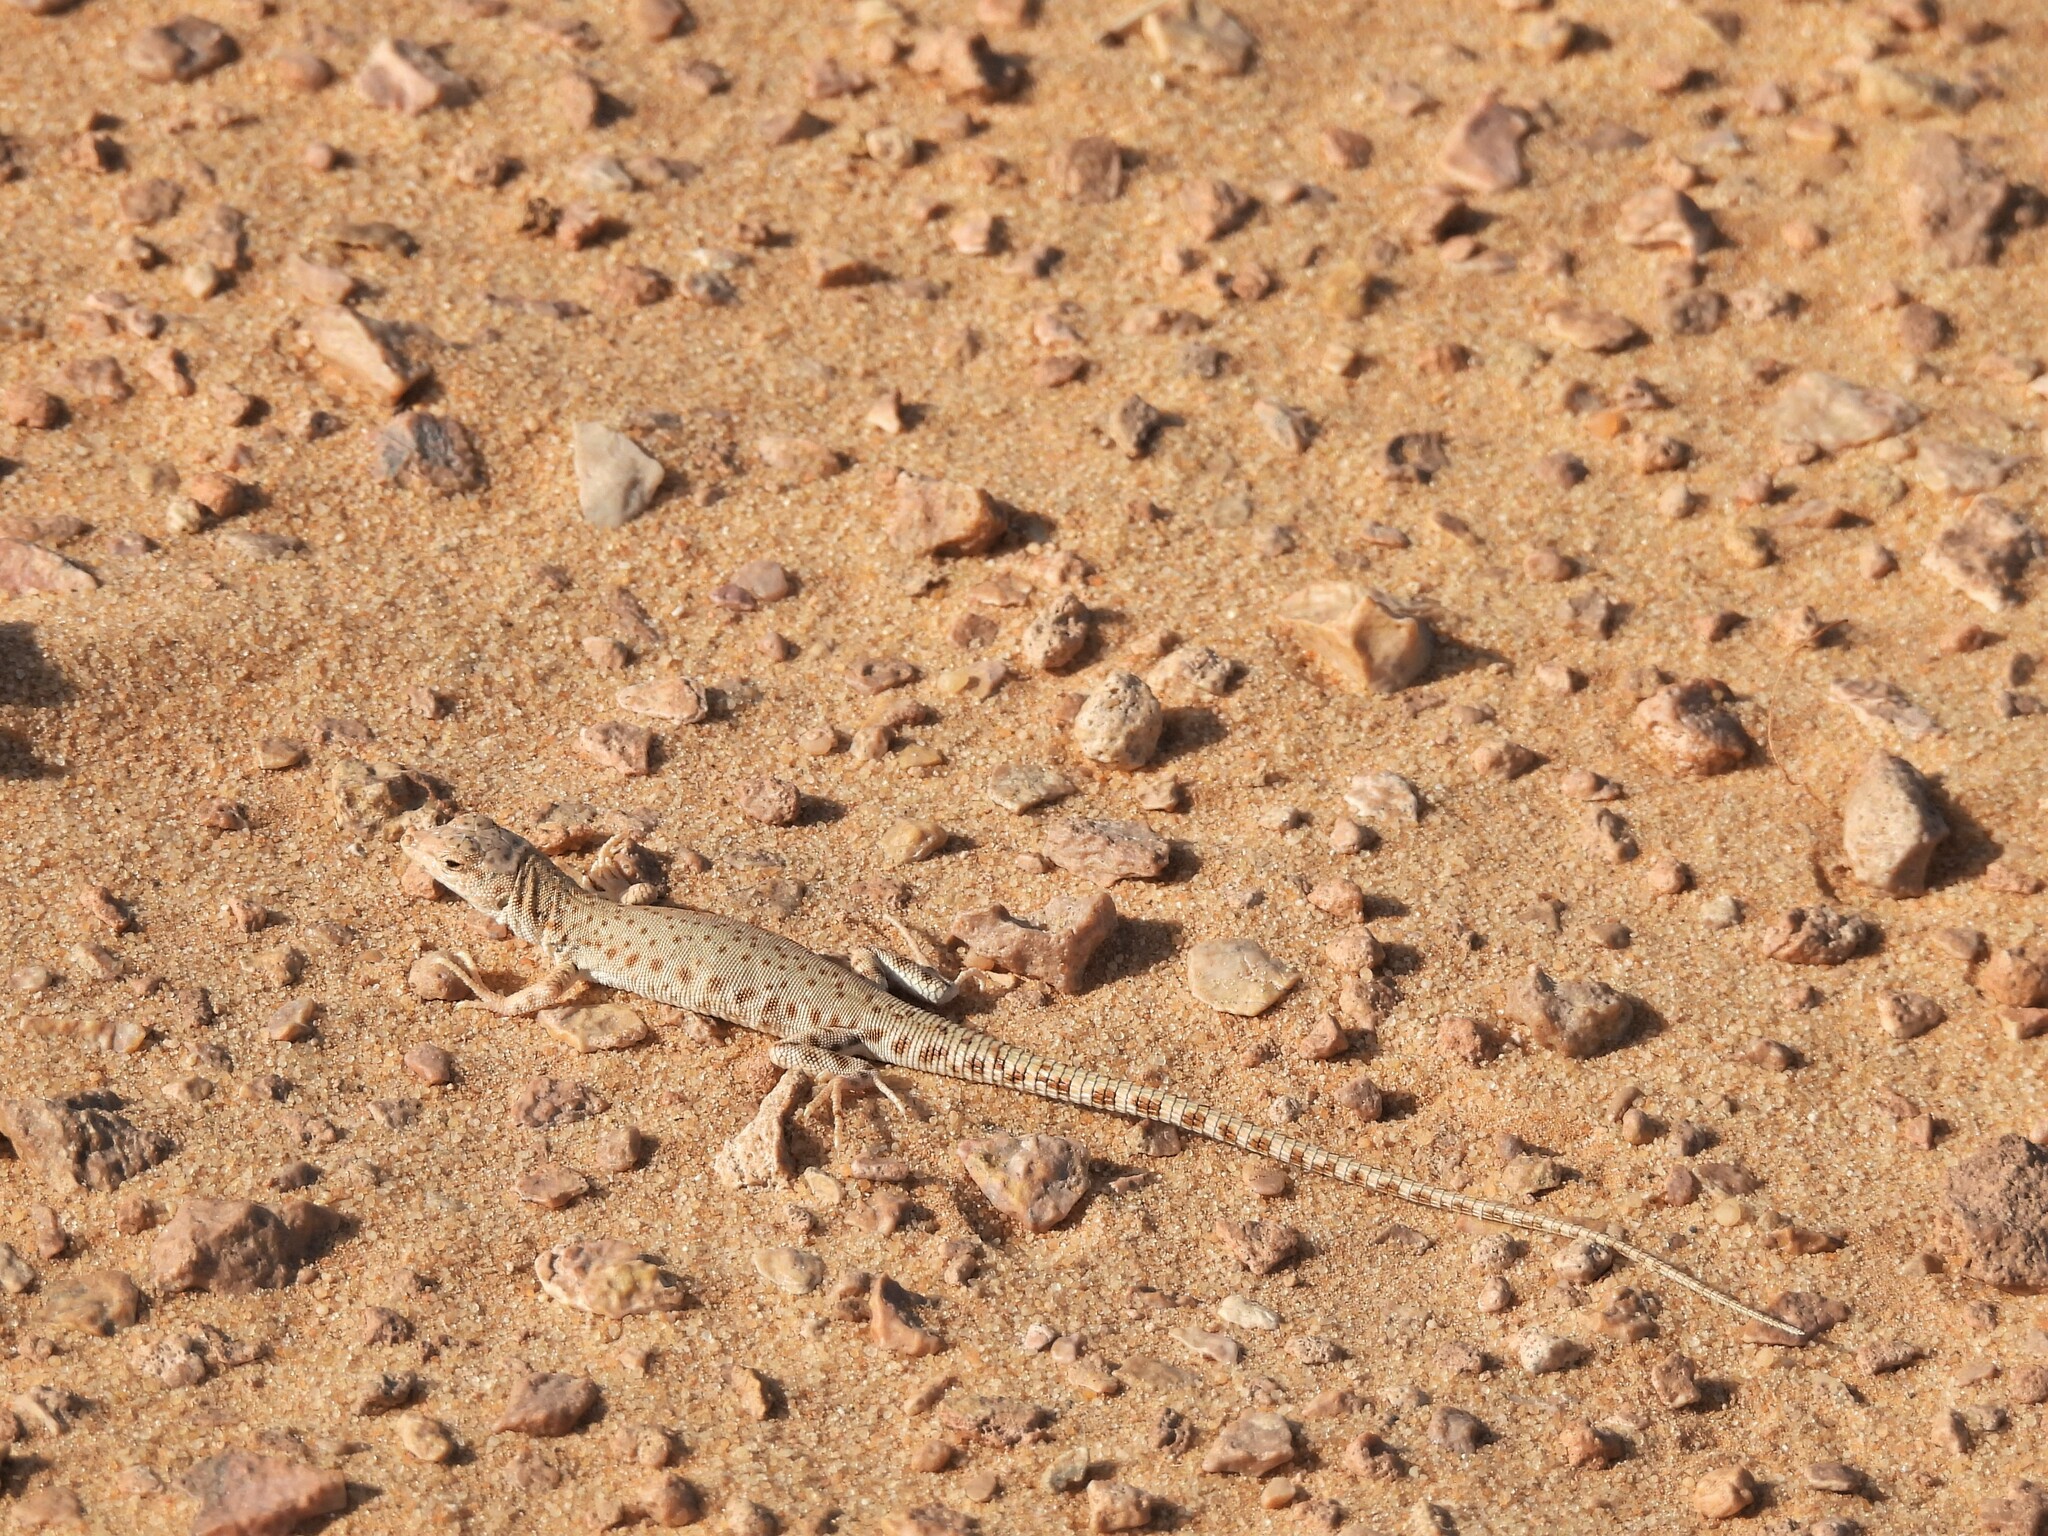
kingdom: Animalia
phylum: Chordata
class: Squamata
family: Lacertidae
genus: Mesalina
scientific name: Mesalina brevirostris
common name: Blanford's short-nosed desert lizard
